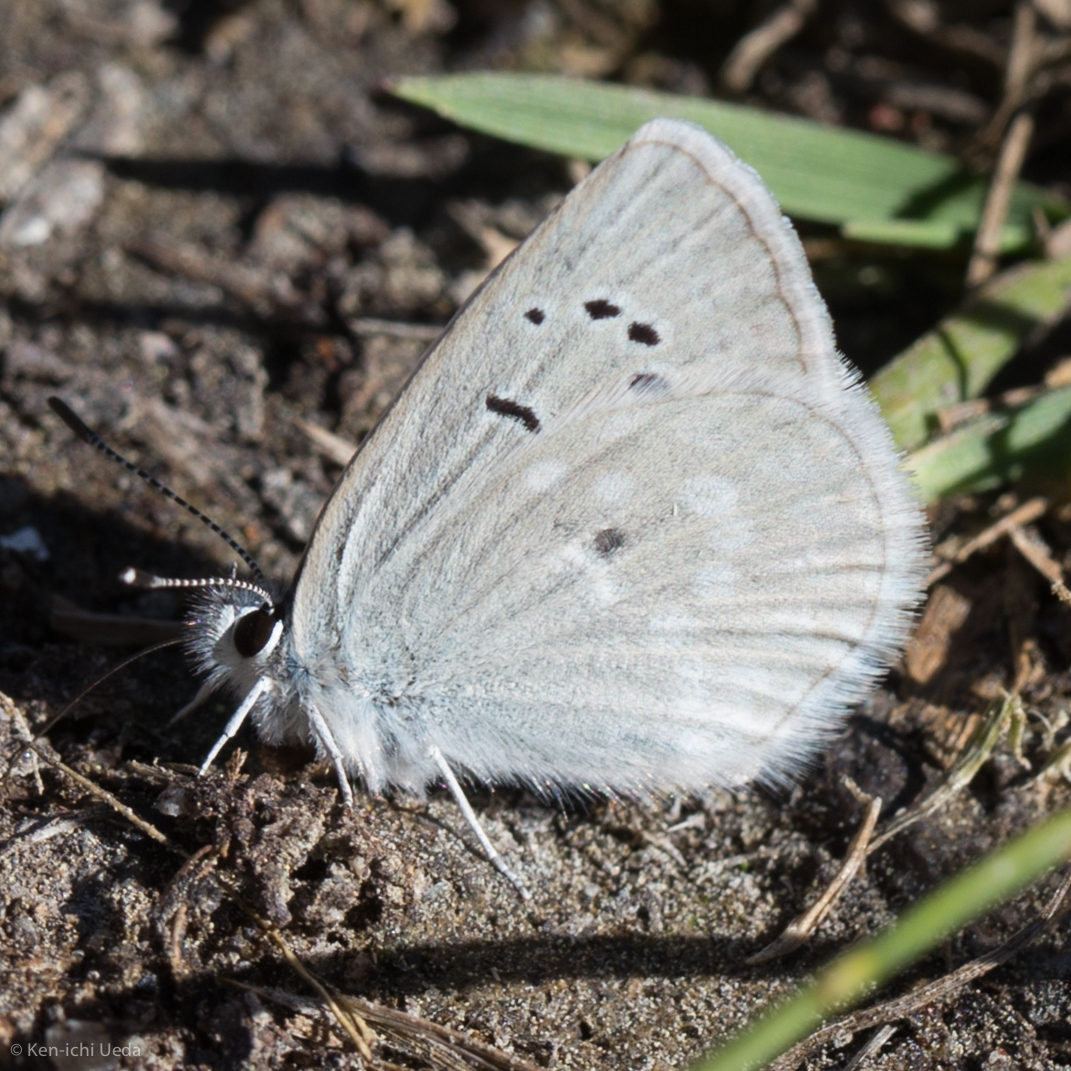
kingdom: Animalia
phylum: Arthropoda
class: Insecta
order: Lepidoptera
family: Lycaenidae
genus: Icaricia
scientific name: Icaricia icarioides
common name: Boisduval's blue
